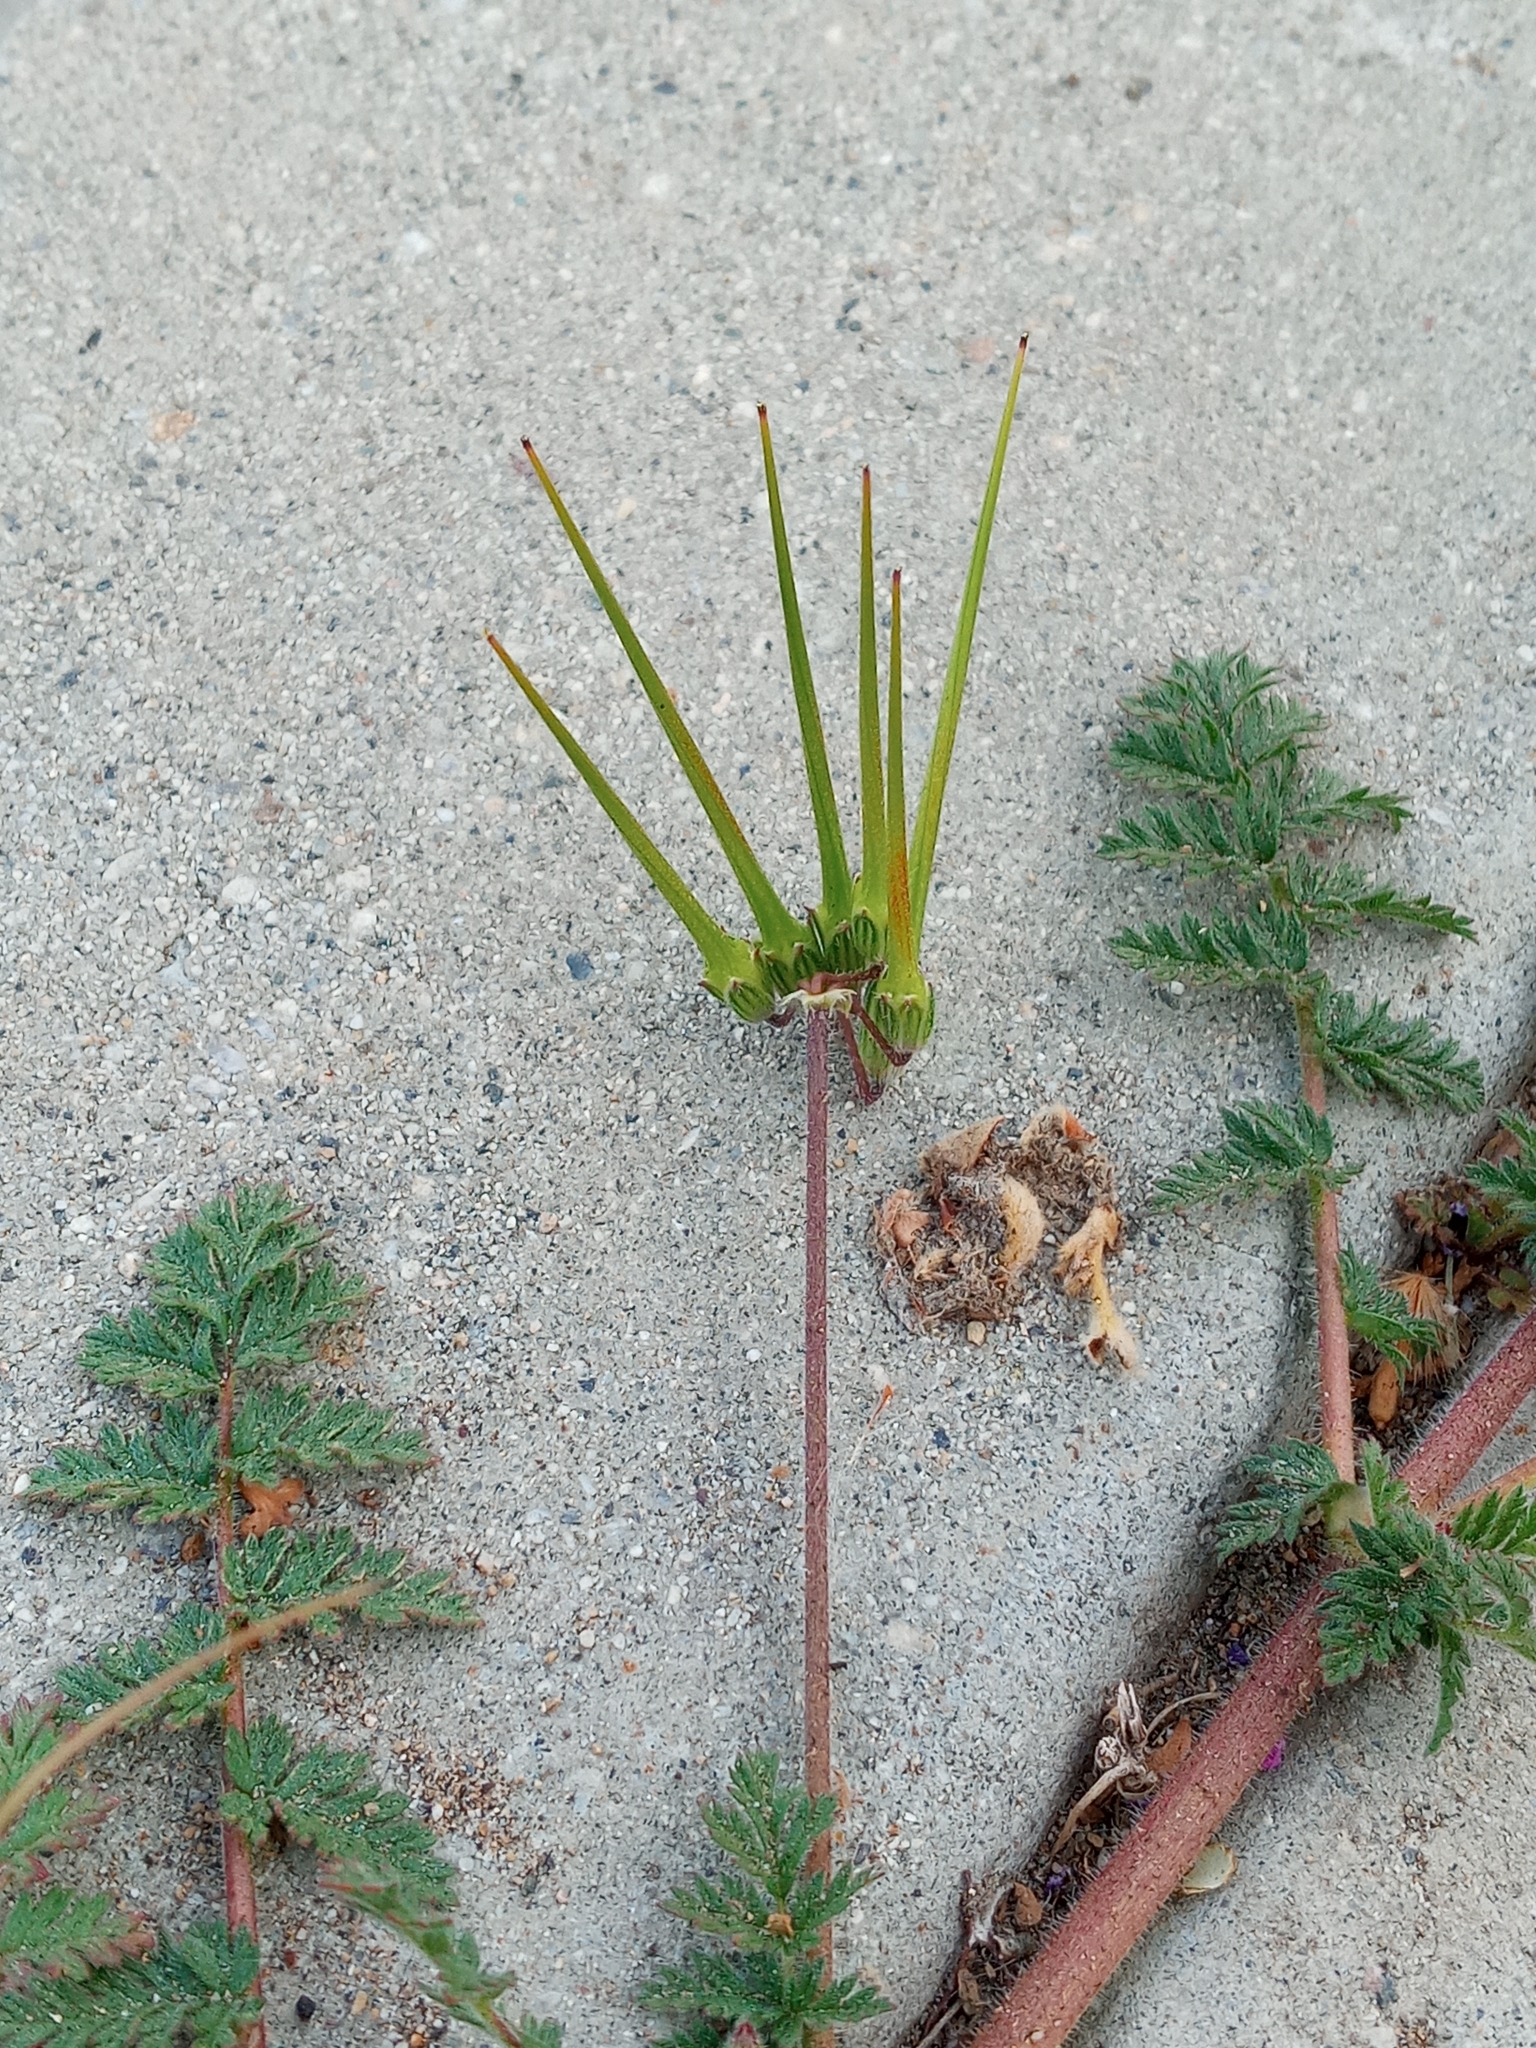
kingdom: Plantae
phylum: Tracheophyta
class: Magnoliopsida
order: Geraniales
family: Geraniaceae
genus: Erodium
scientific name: Erodium cicutarium
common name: Common stork's-bill
